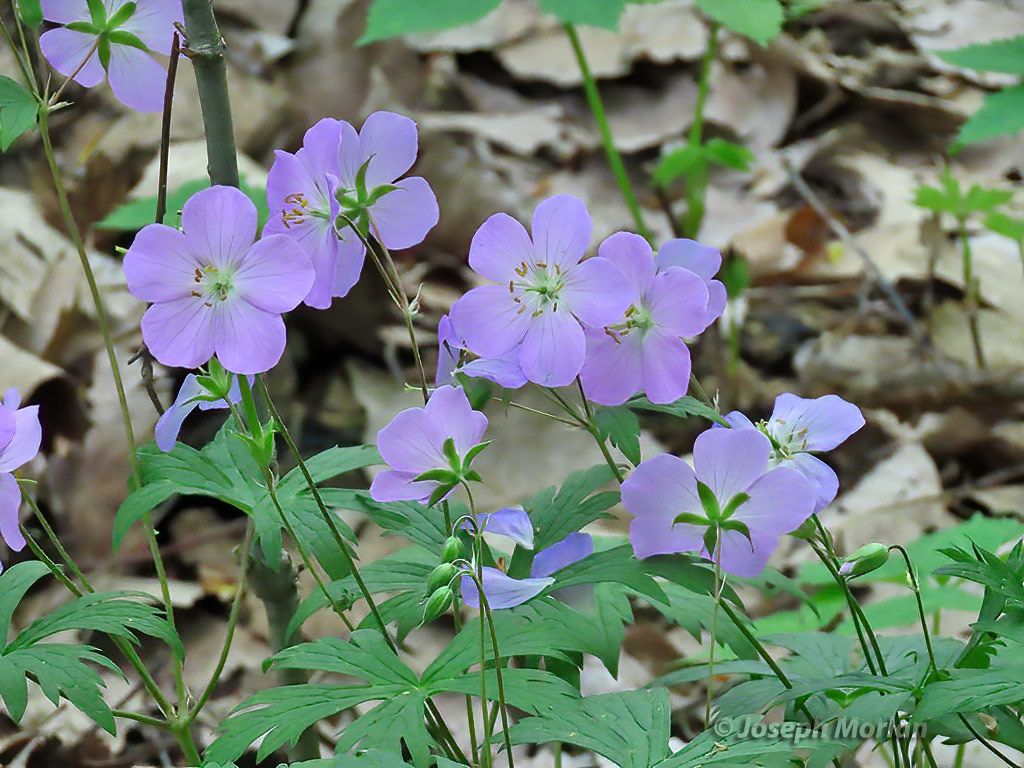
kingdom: Plantae
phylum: Tracheophyta
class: Magnoliopsida
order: Geraniales
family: Geraniaceae
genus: Geranium
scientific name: Geranium maculatum
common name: Spotted geranium
